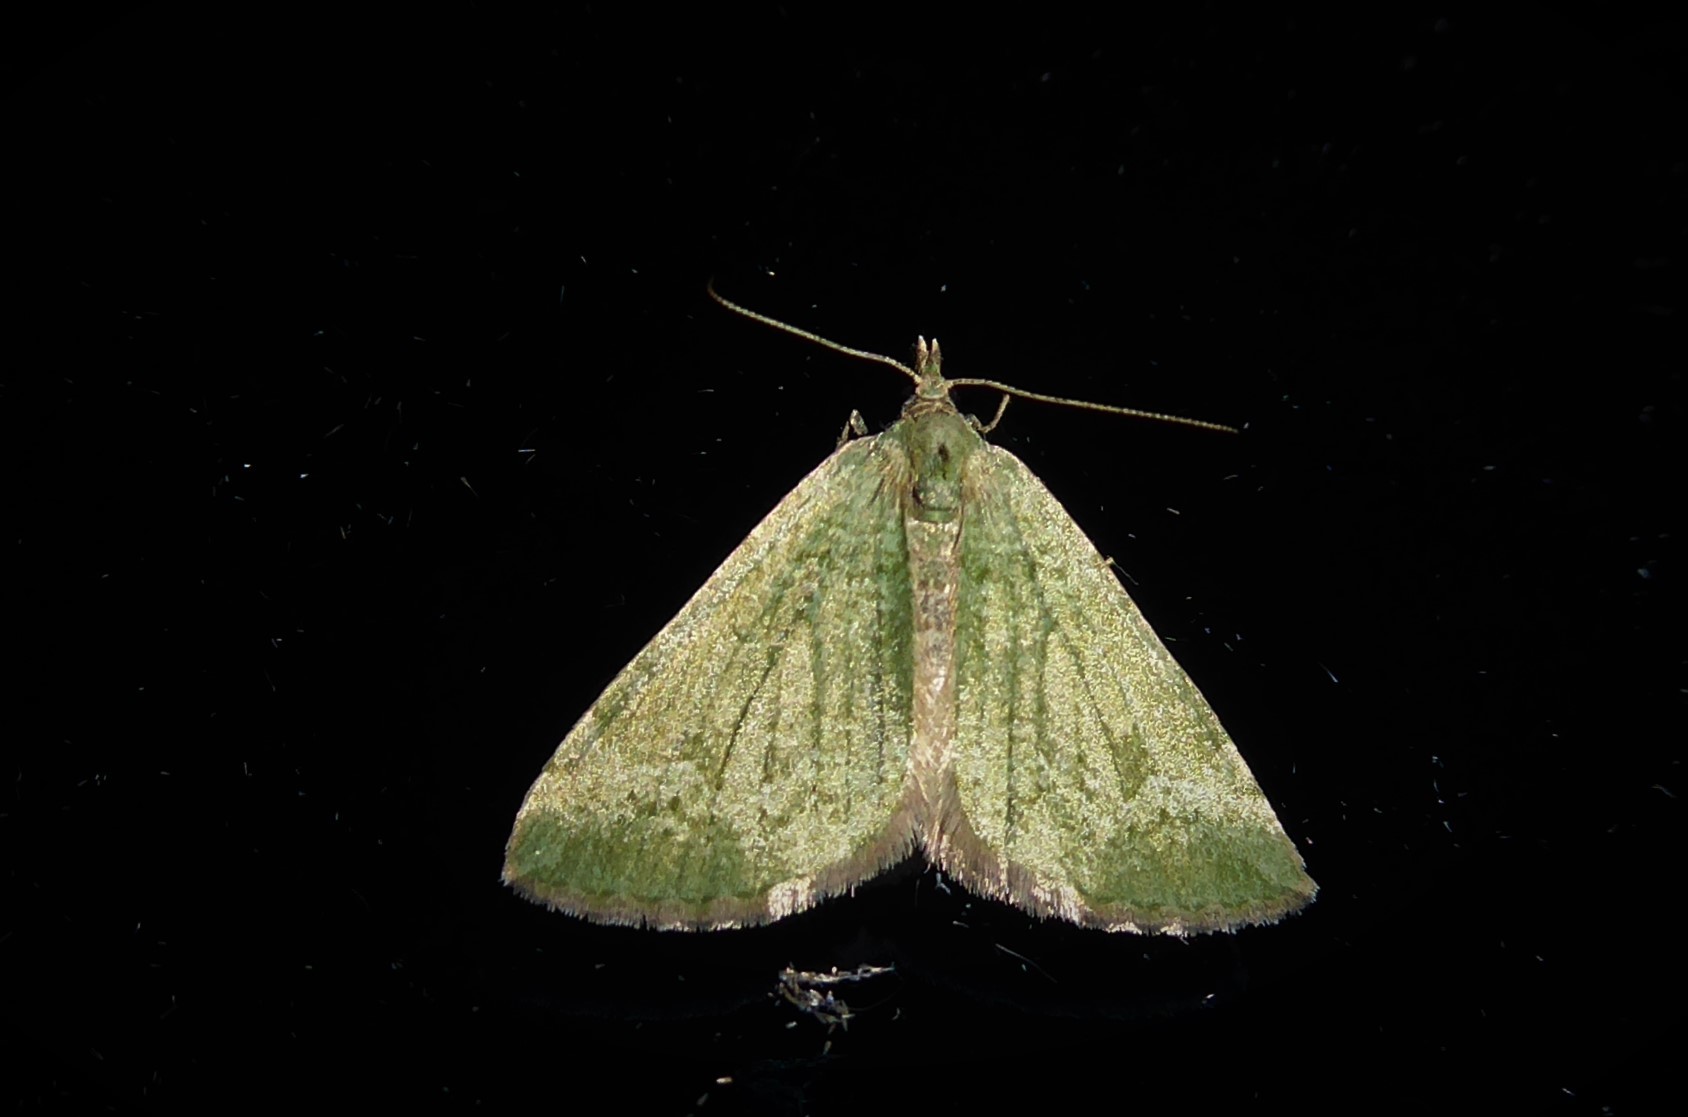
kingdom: Animalia
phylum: Arthropoda
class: Insecta
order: Lepidoptera
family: Geometridae
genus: Epyaxa
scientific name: Epyaxa rosearia
